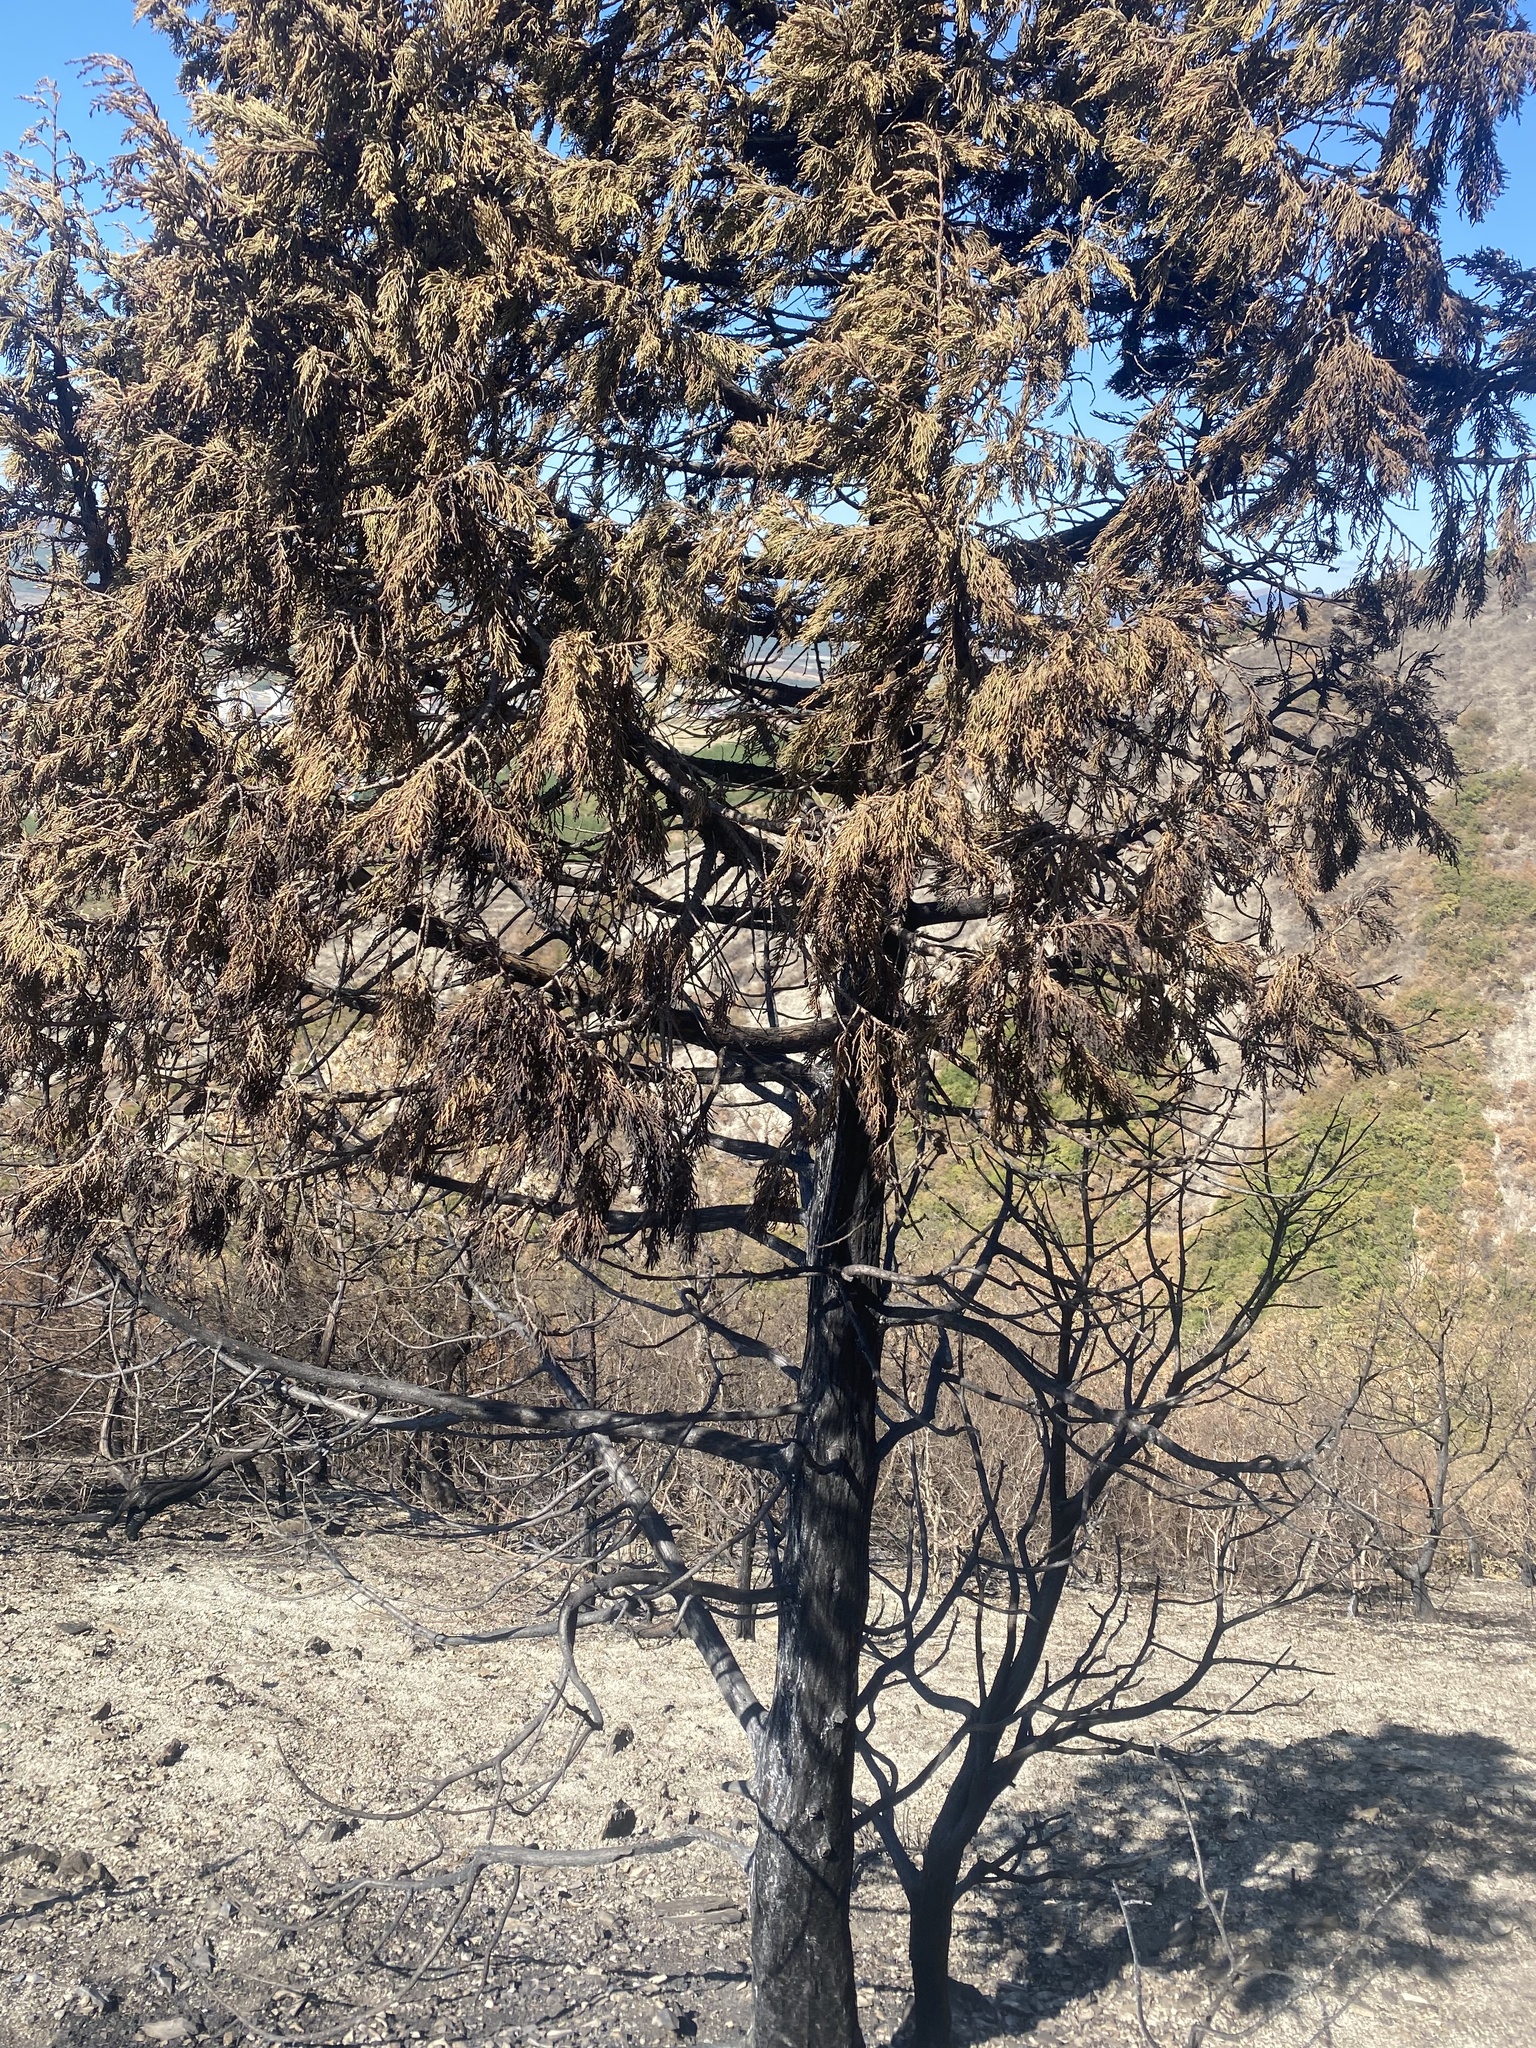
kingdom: Plantae
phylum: Tracheophyta
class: Pinopsida
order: Pinales
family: Cupressaceae
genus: Juniperus
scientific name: Juniperus excelsa
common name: Crimean juniper
